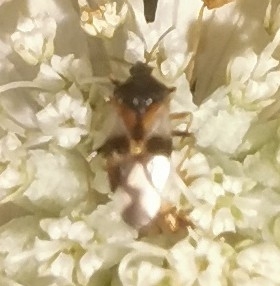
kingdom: Animalia
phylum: Arthropoda
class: Insecta
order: Hemiptera
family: Anthocoridae
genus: Anthocoris
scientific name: Anthocoris nemorum
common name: Minute pirate bug
